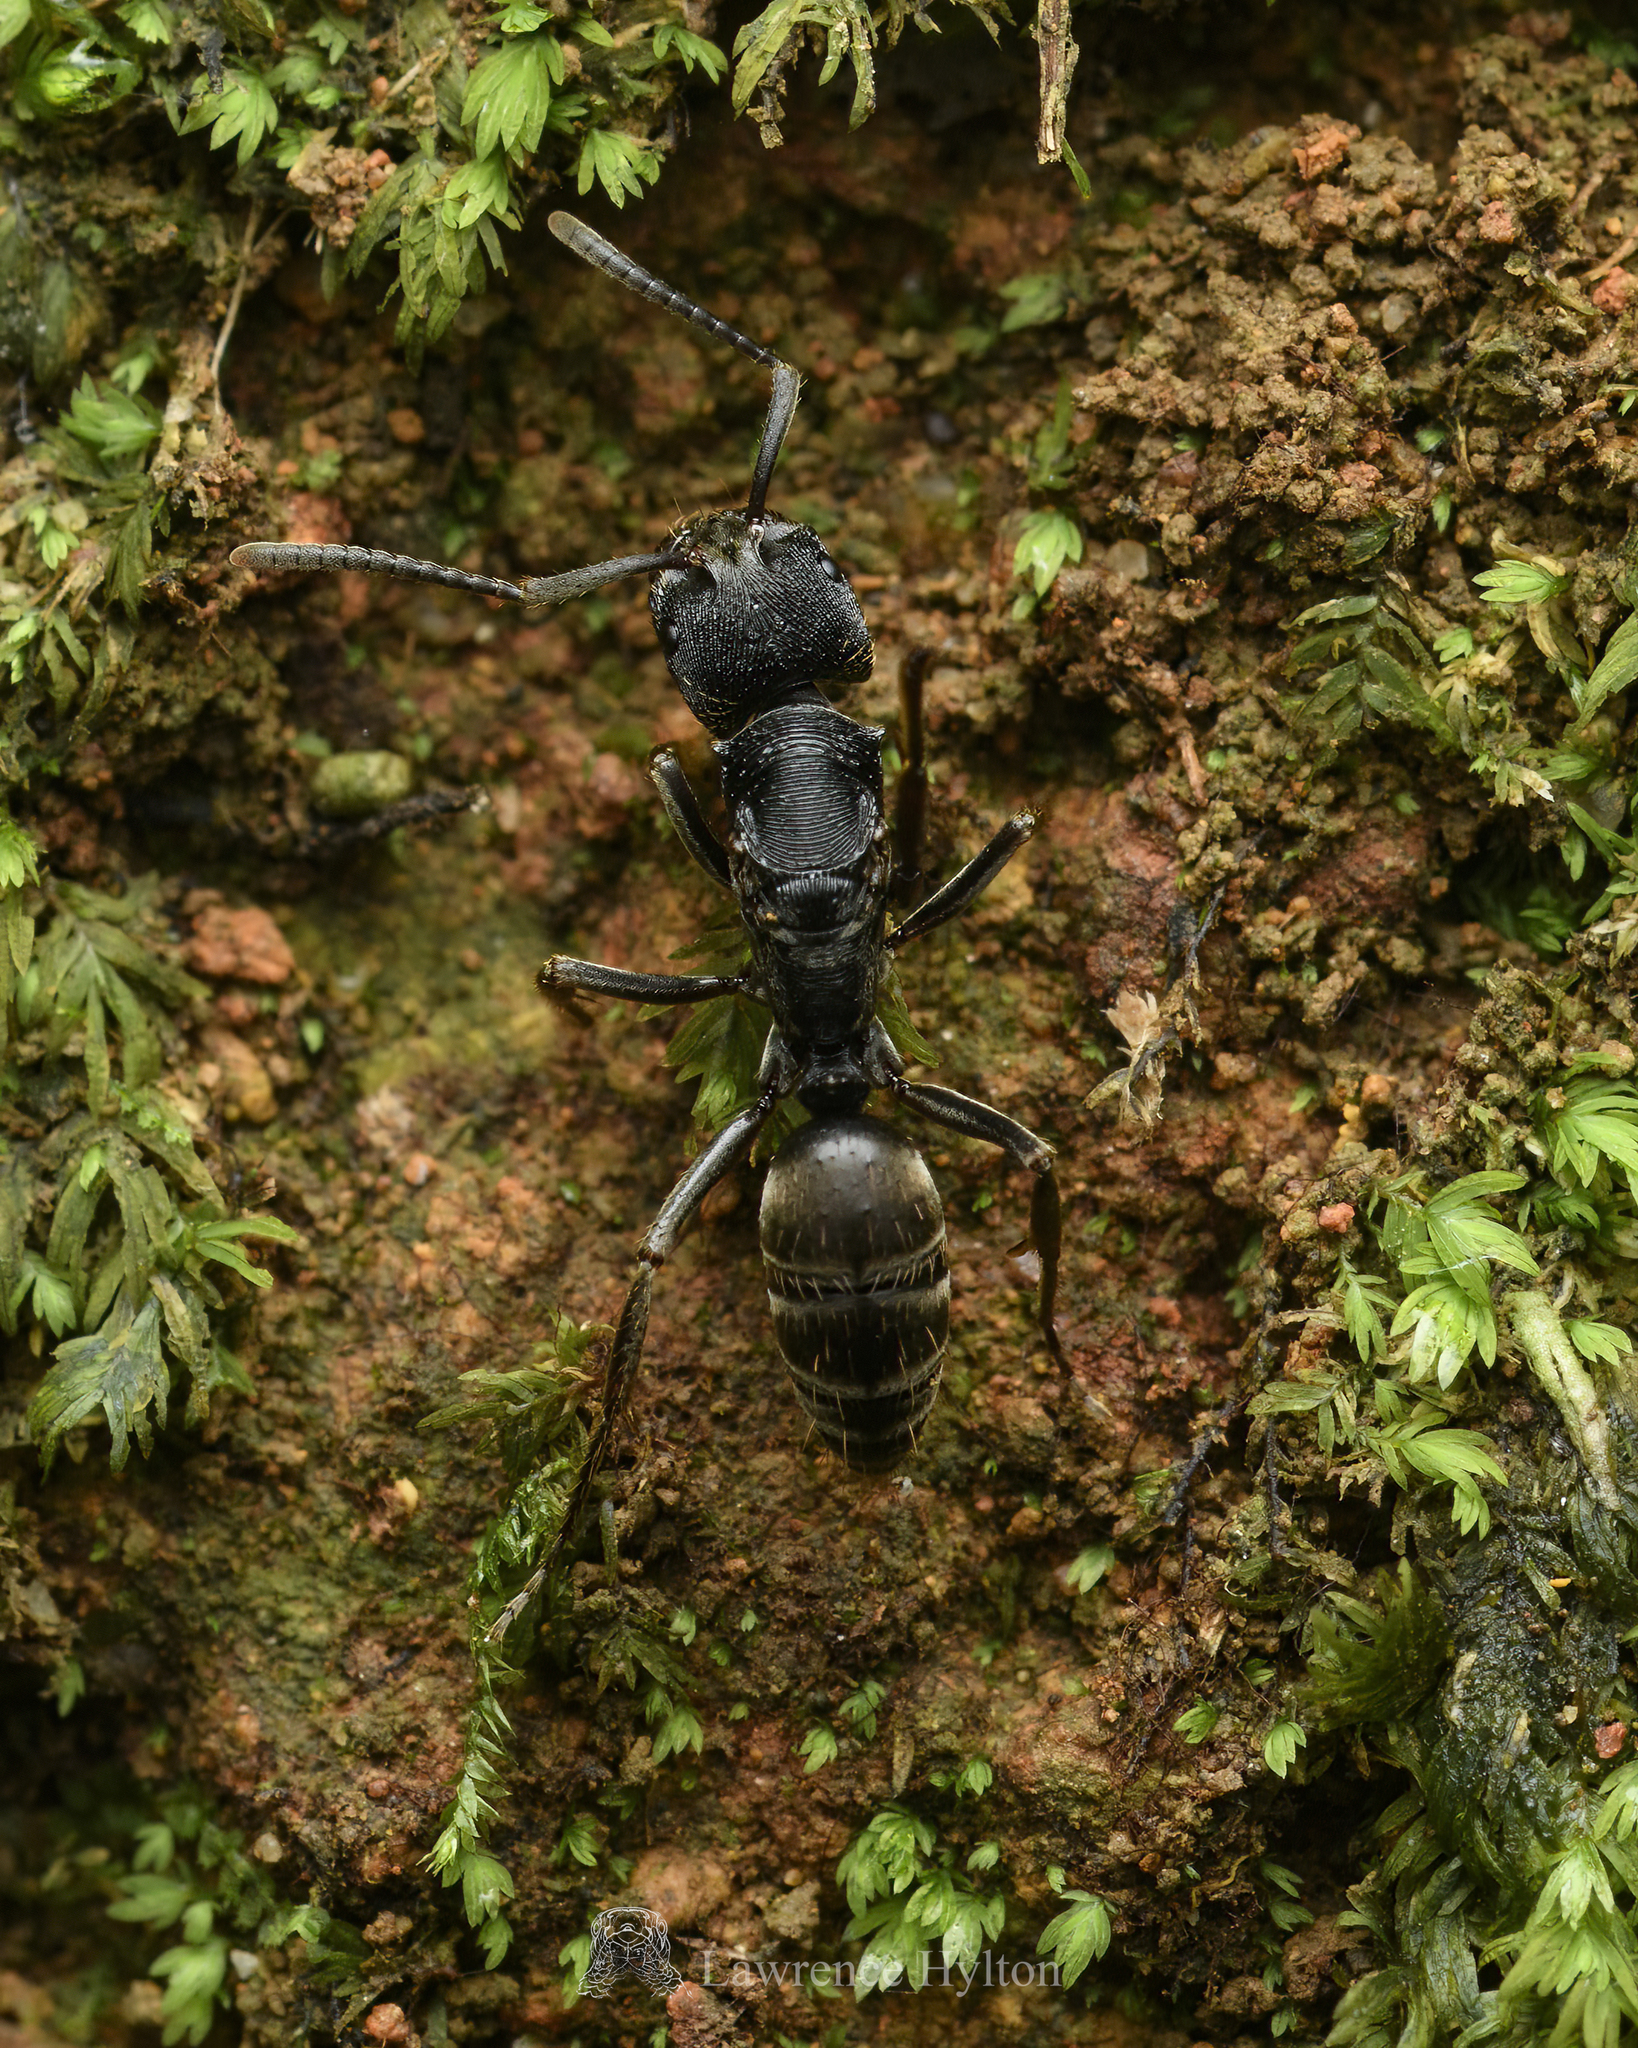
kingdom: Animalia
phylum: Arthropoda
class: Insecta
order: Hymenoptera
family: Formicidae
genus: Odontoponera
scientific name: Odontoponera denticulata
